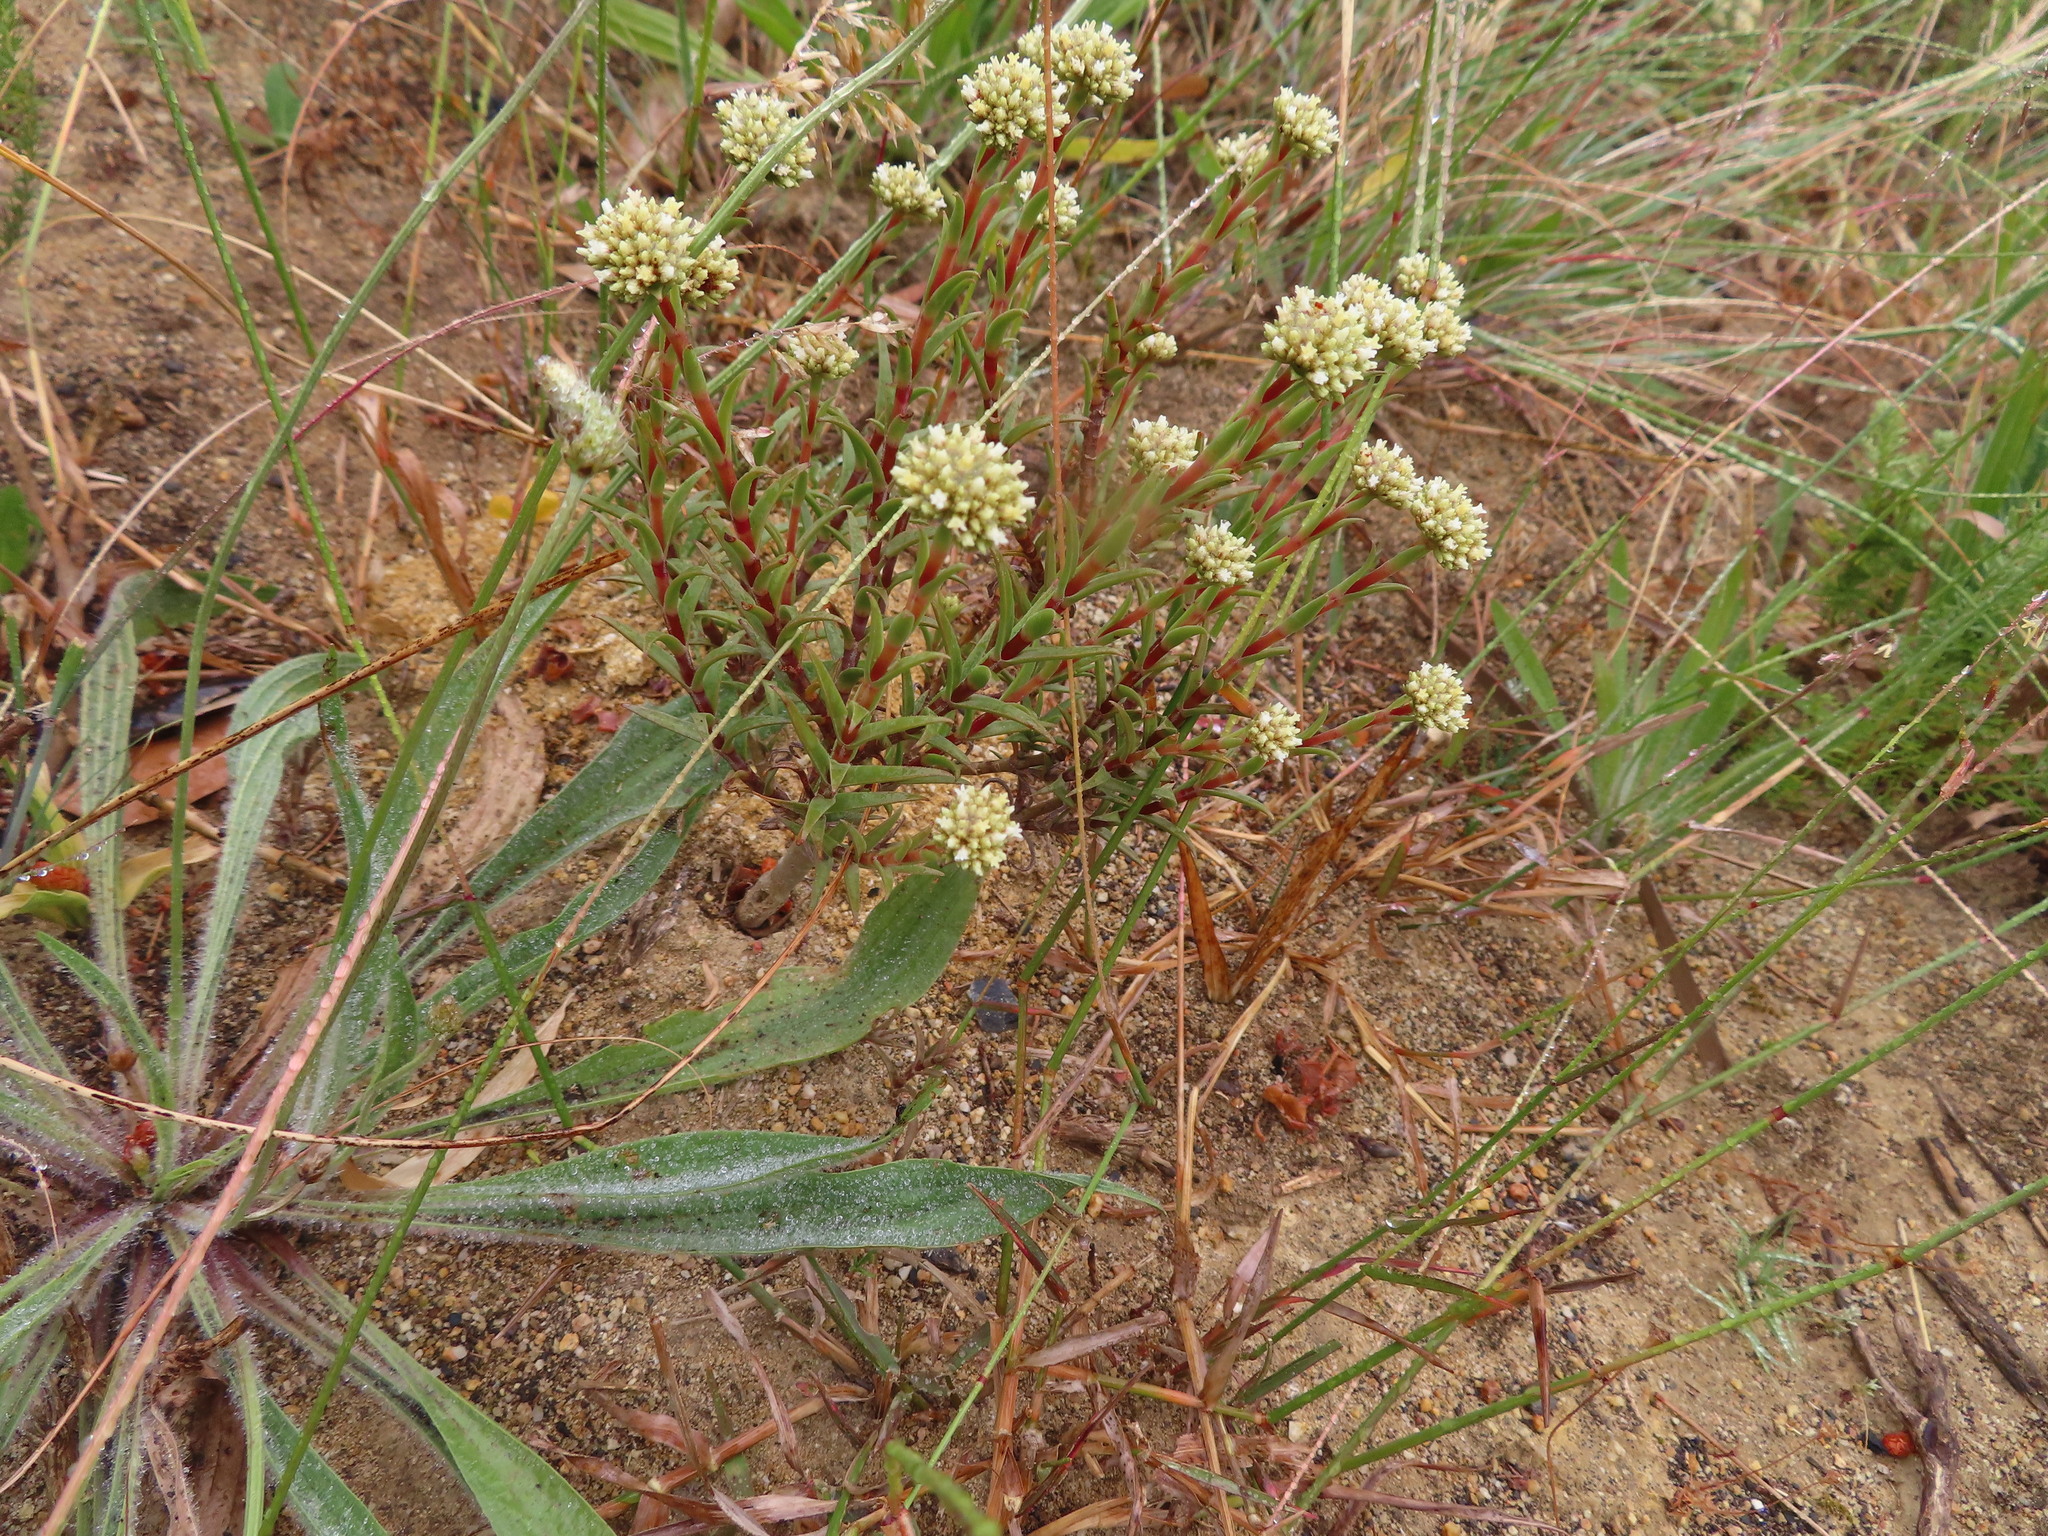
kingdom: Plantae
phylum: Tracheophyta
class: Magnoliopsida
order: Saxifragales
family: Crassulaceae
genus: Crassula
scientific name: Crassula subulata
